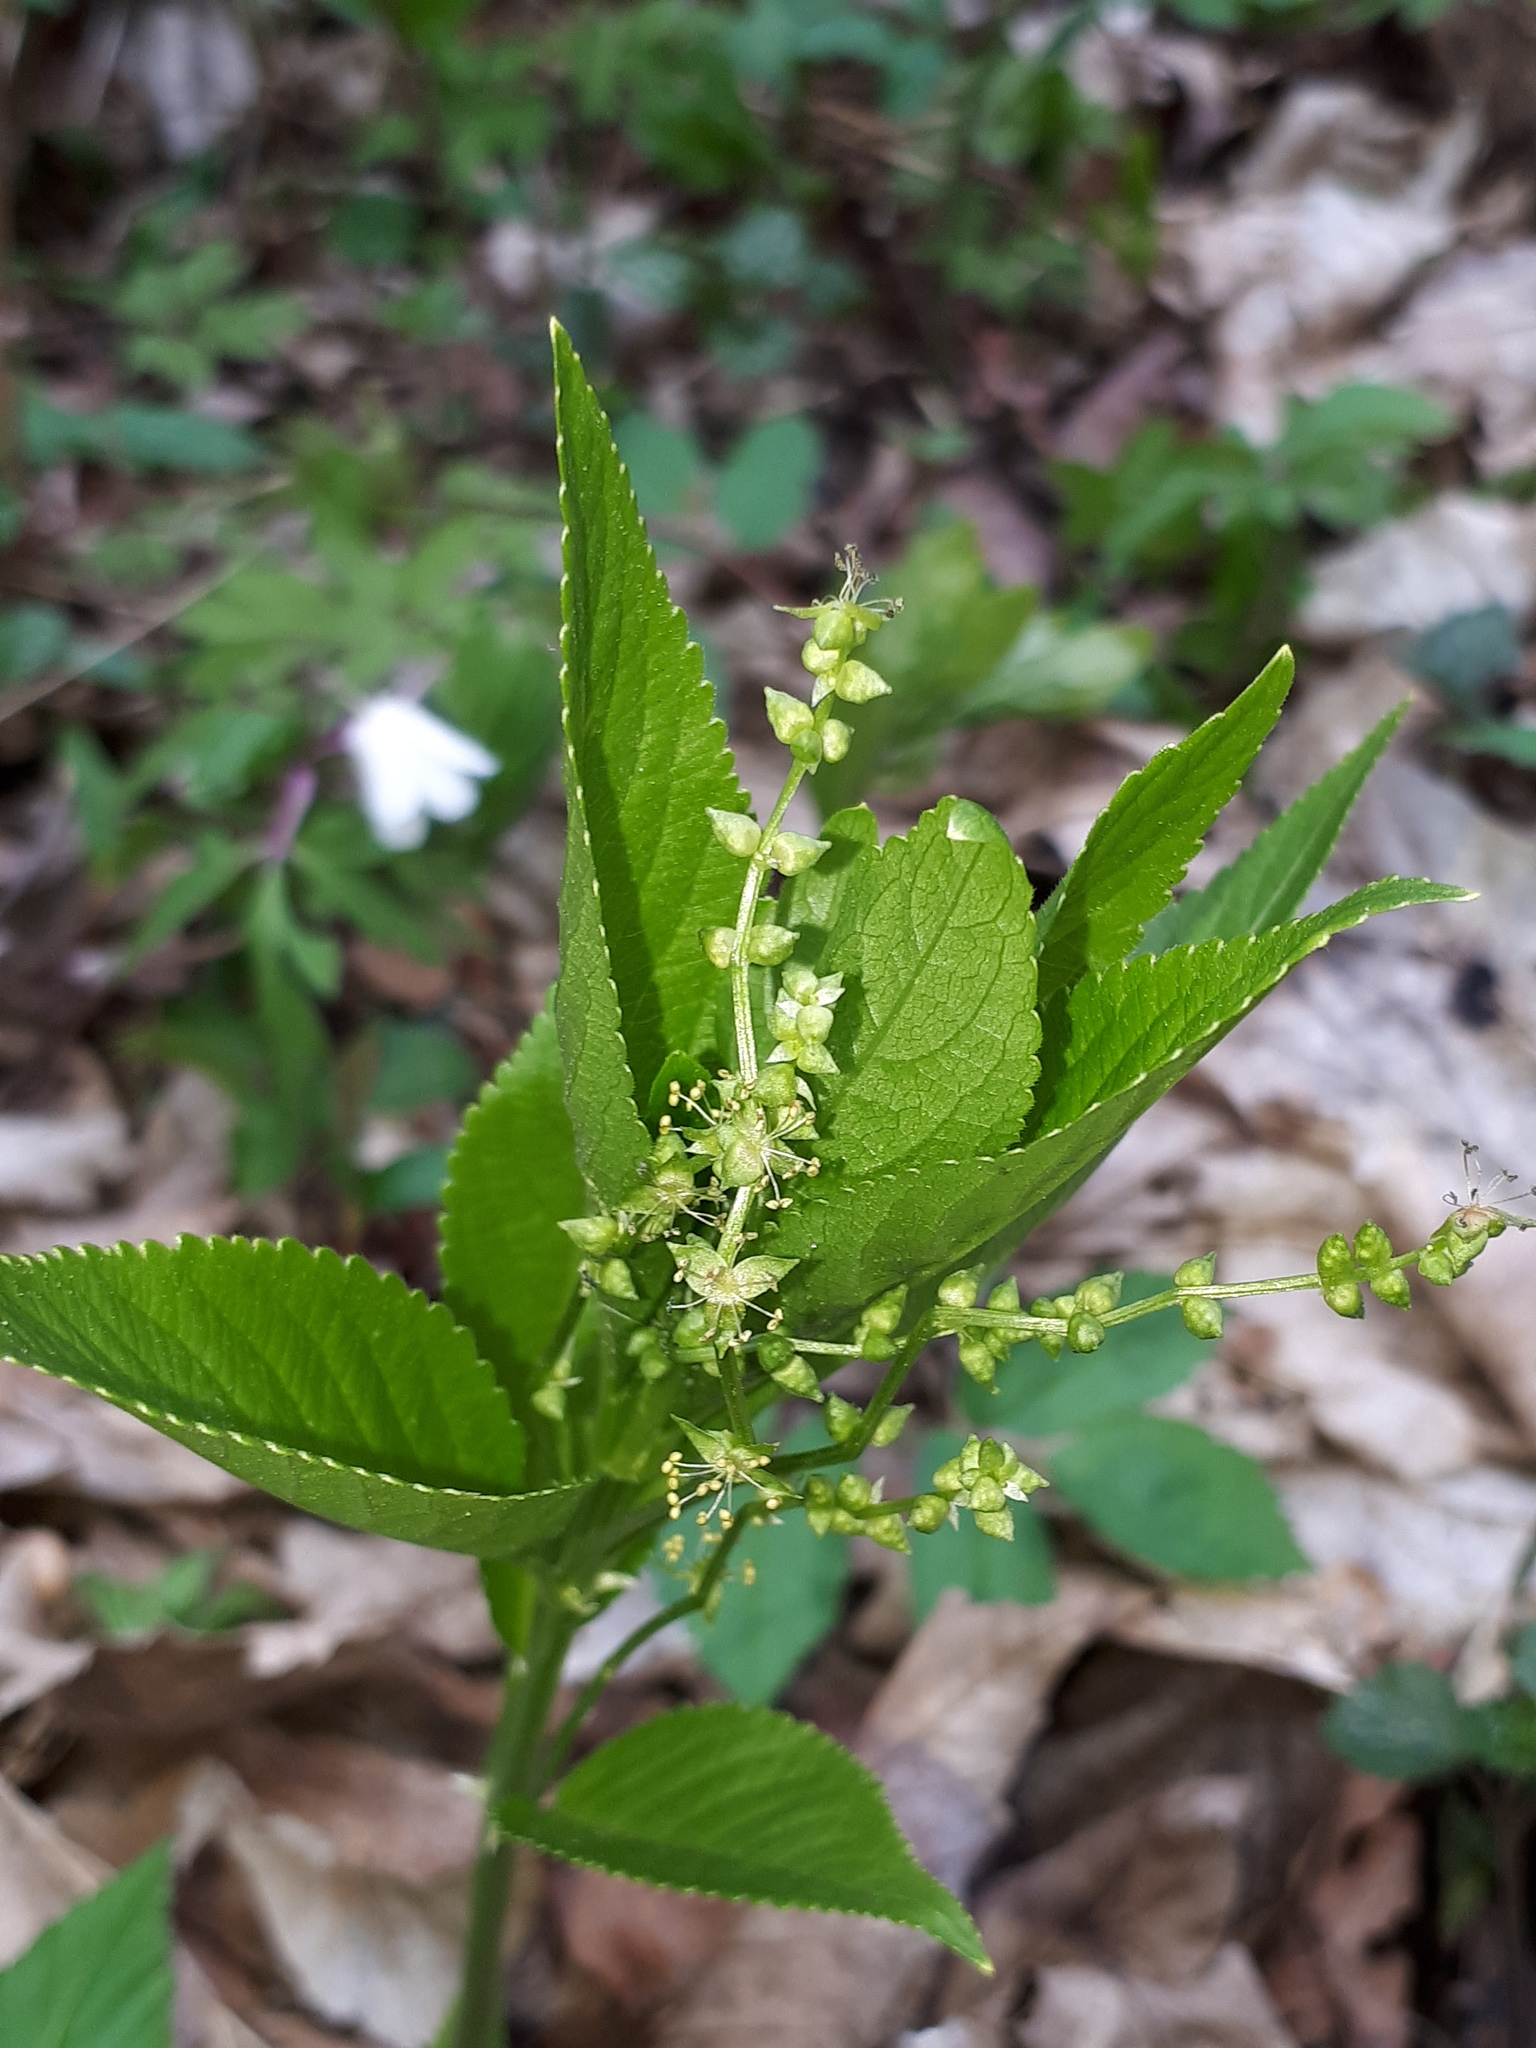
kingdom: Plantae
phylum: Tracheophyta
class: Magnoliopsida
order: Malpighiales
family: Euphorbiaceae
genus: Mercurialis
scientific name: Mercurialis perennis
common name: Dog mercury
